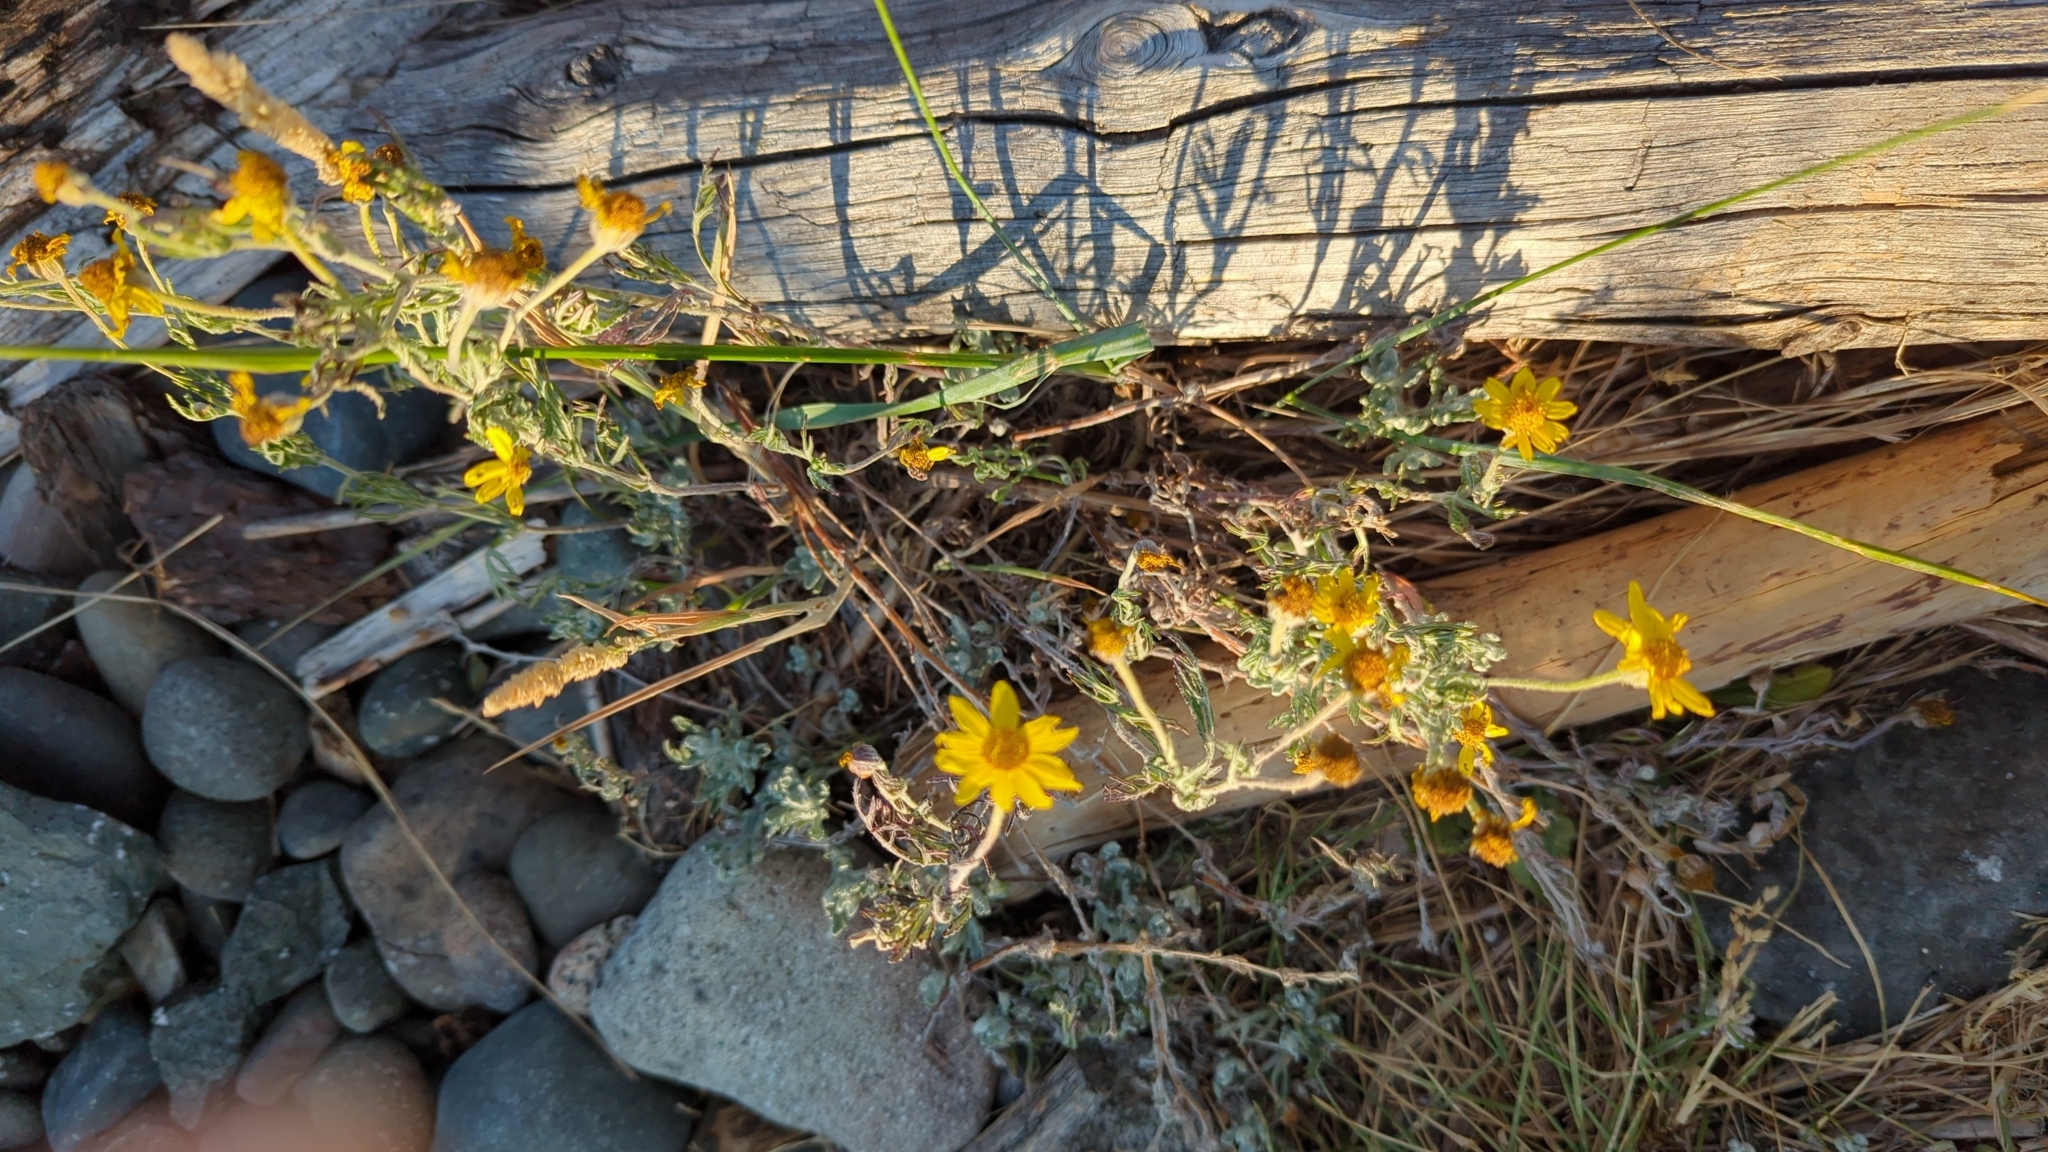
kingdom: Plantae
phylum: Tracheophyta
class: Magnoliopsida
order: Asterales
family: Asteraceae
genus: Eriophyllum
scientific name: Eriophyllum lanatum
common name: Common woolly-sunflower
